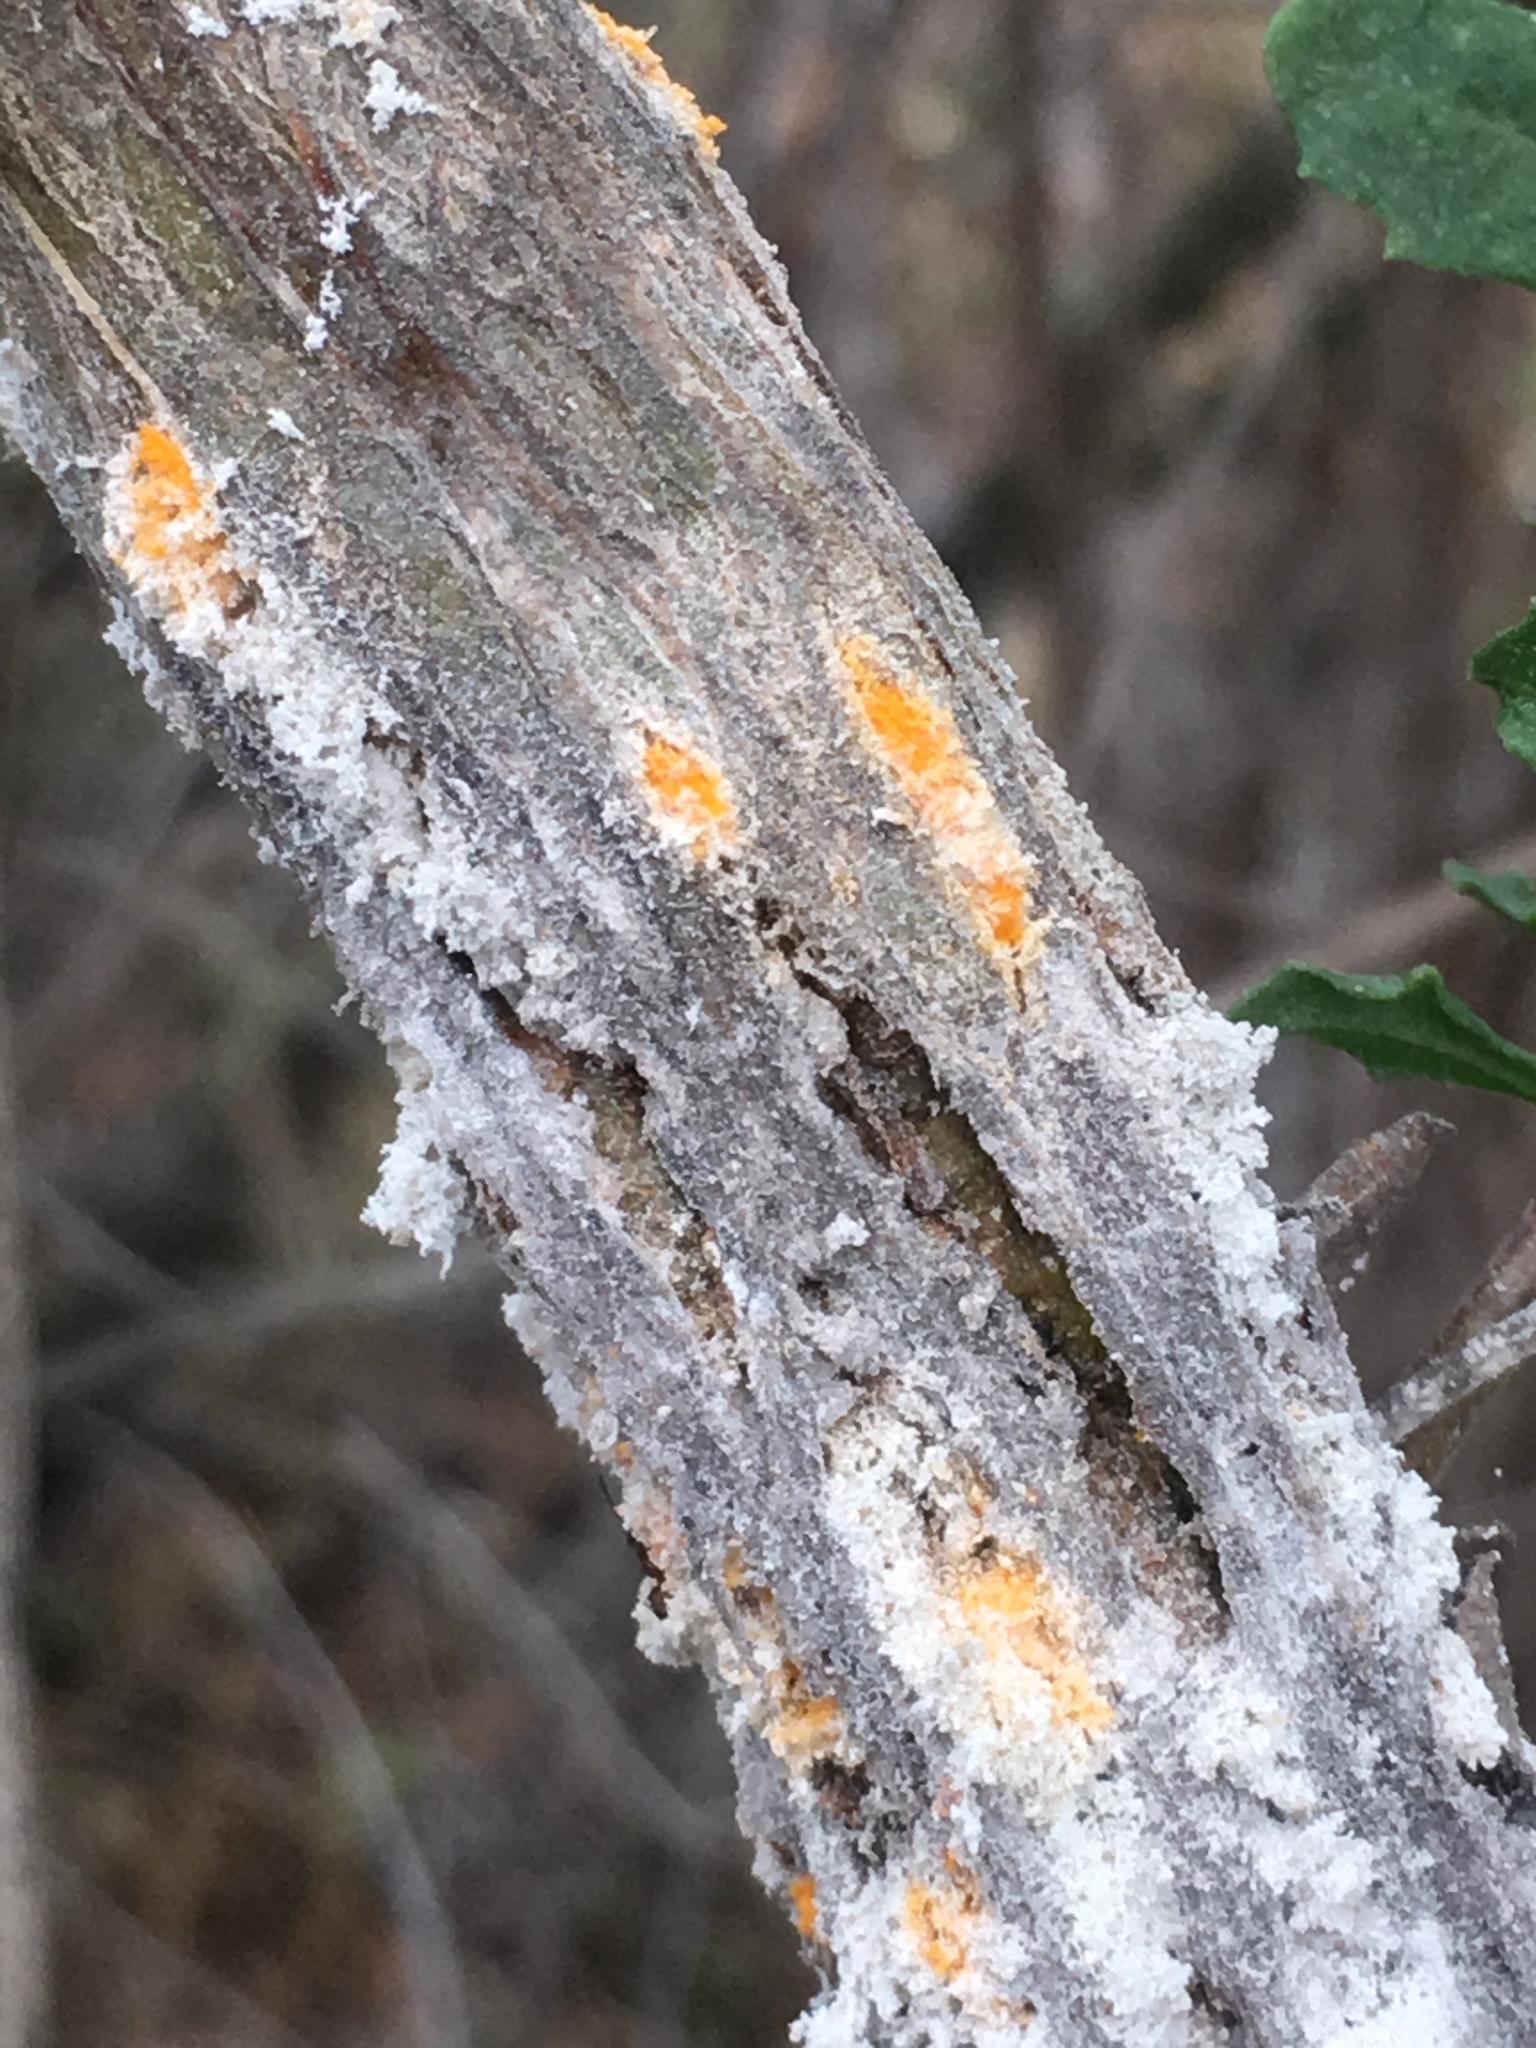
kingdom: Fungi
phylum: Basidiomycota
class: Pucciniomycetes
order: Pucciniales
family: Pucciniaceae
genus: Eriosporangium
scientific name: Eriosporangium evadens
